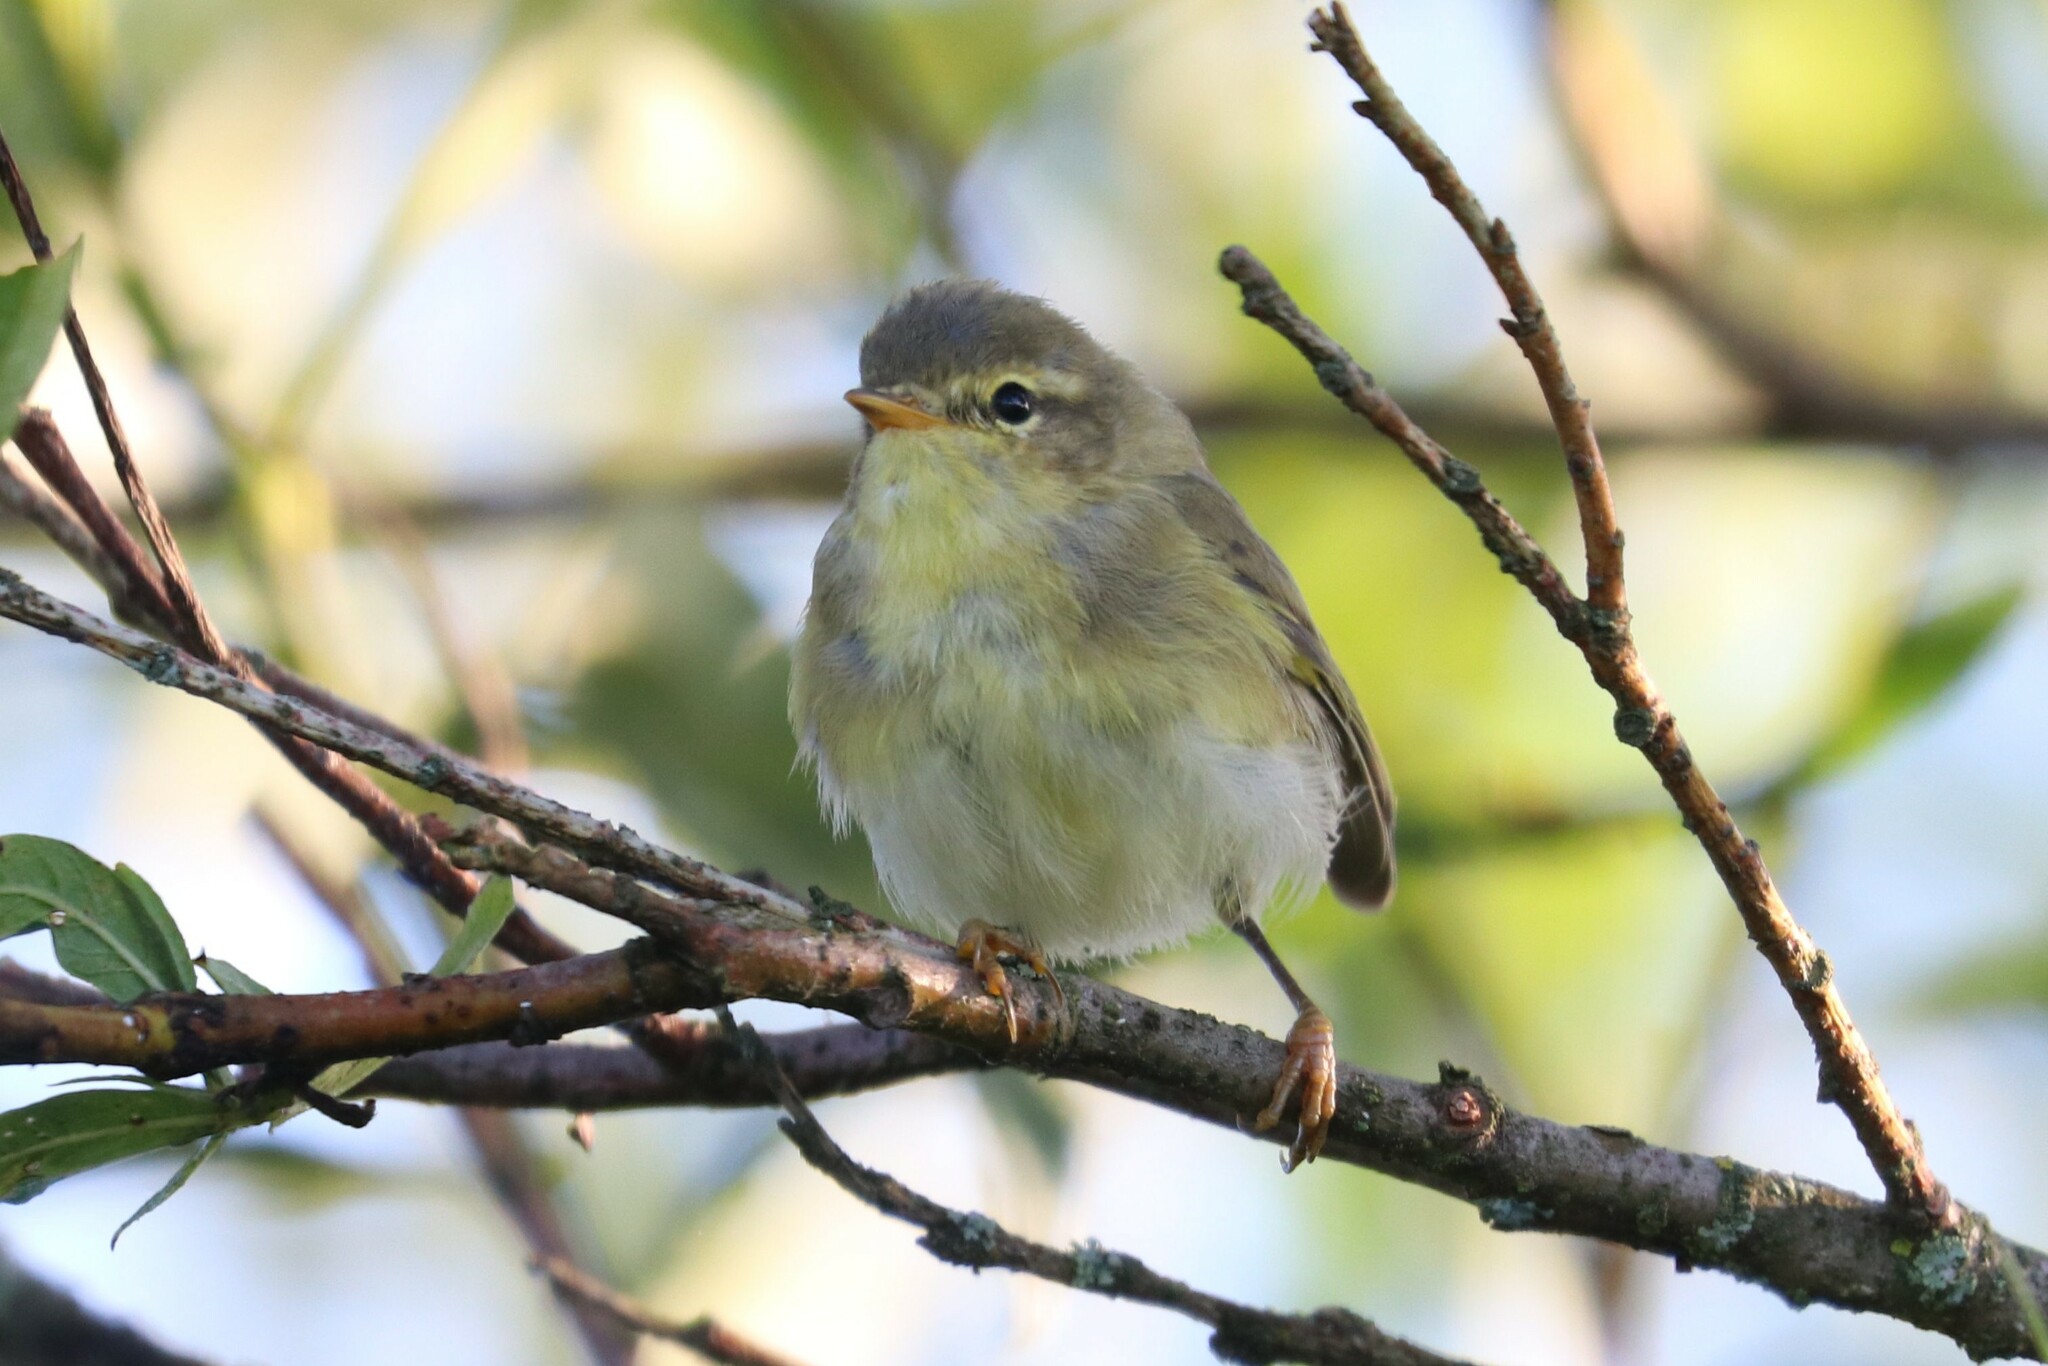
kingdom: Animalia
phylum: Chordata
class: Aves
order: Passeriformes
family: Phylloscopidae
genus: Phylloscopus
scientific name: Phylloscopus trochilus
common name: Willow warbler
